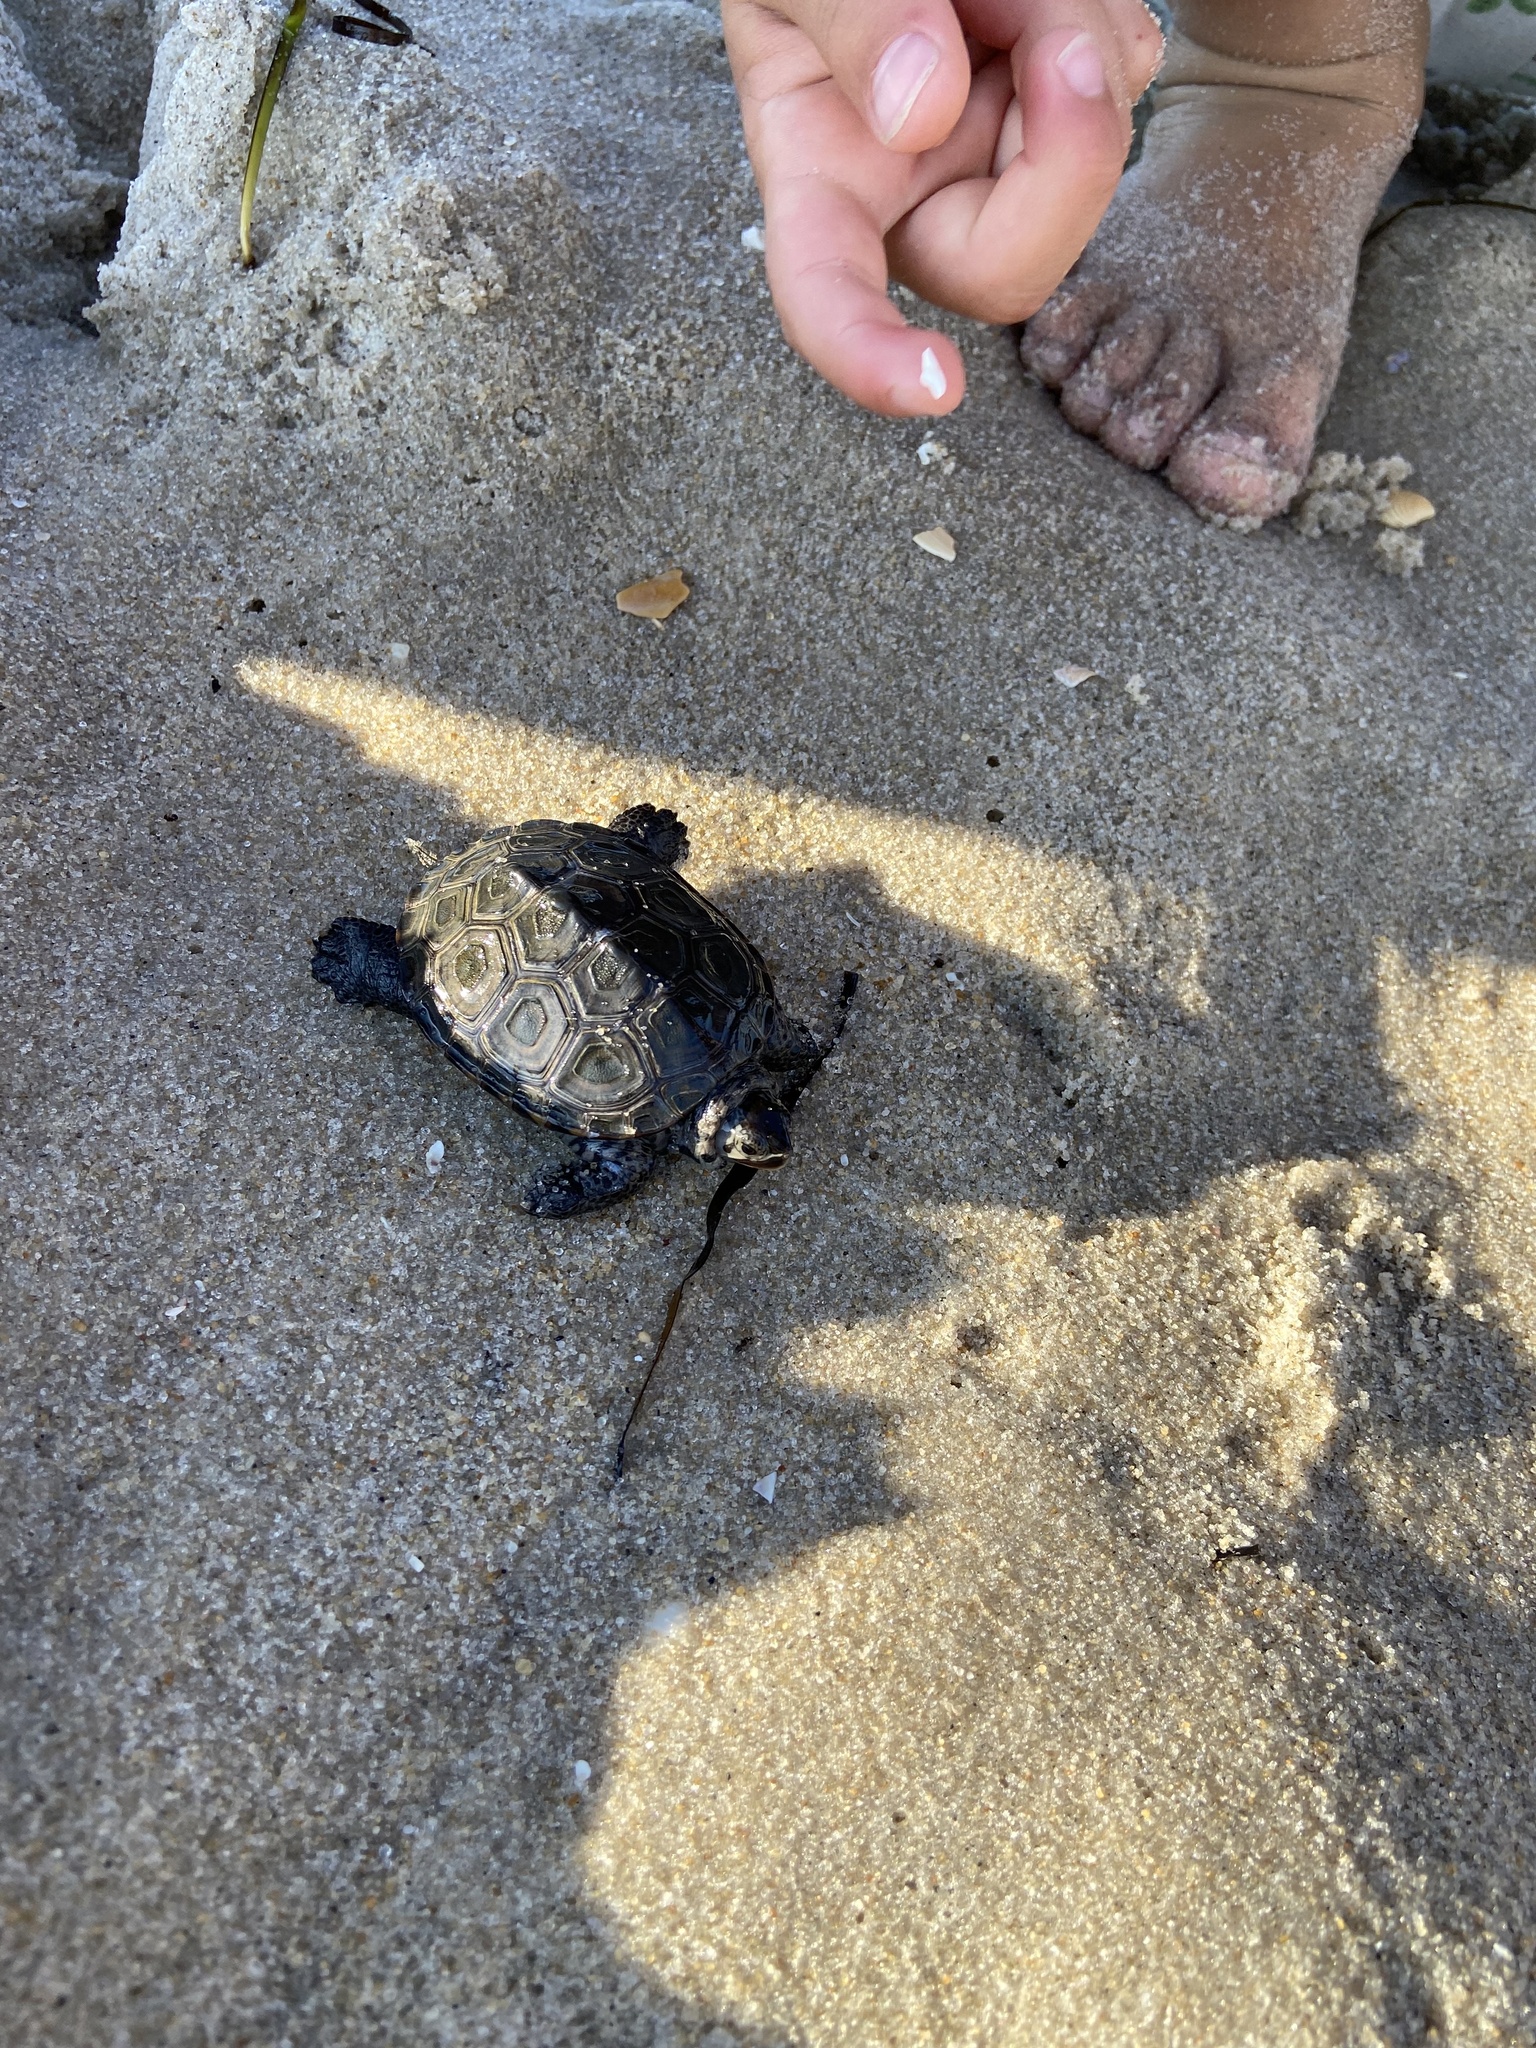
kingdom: Animalia
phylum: Chordata
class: Testudines
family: Emydidae
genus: Malaclemys
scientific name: Malaclemys terrapin
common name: Diamondback terrapin
